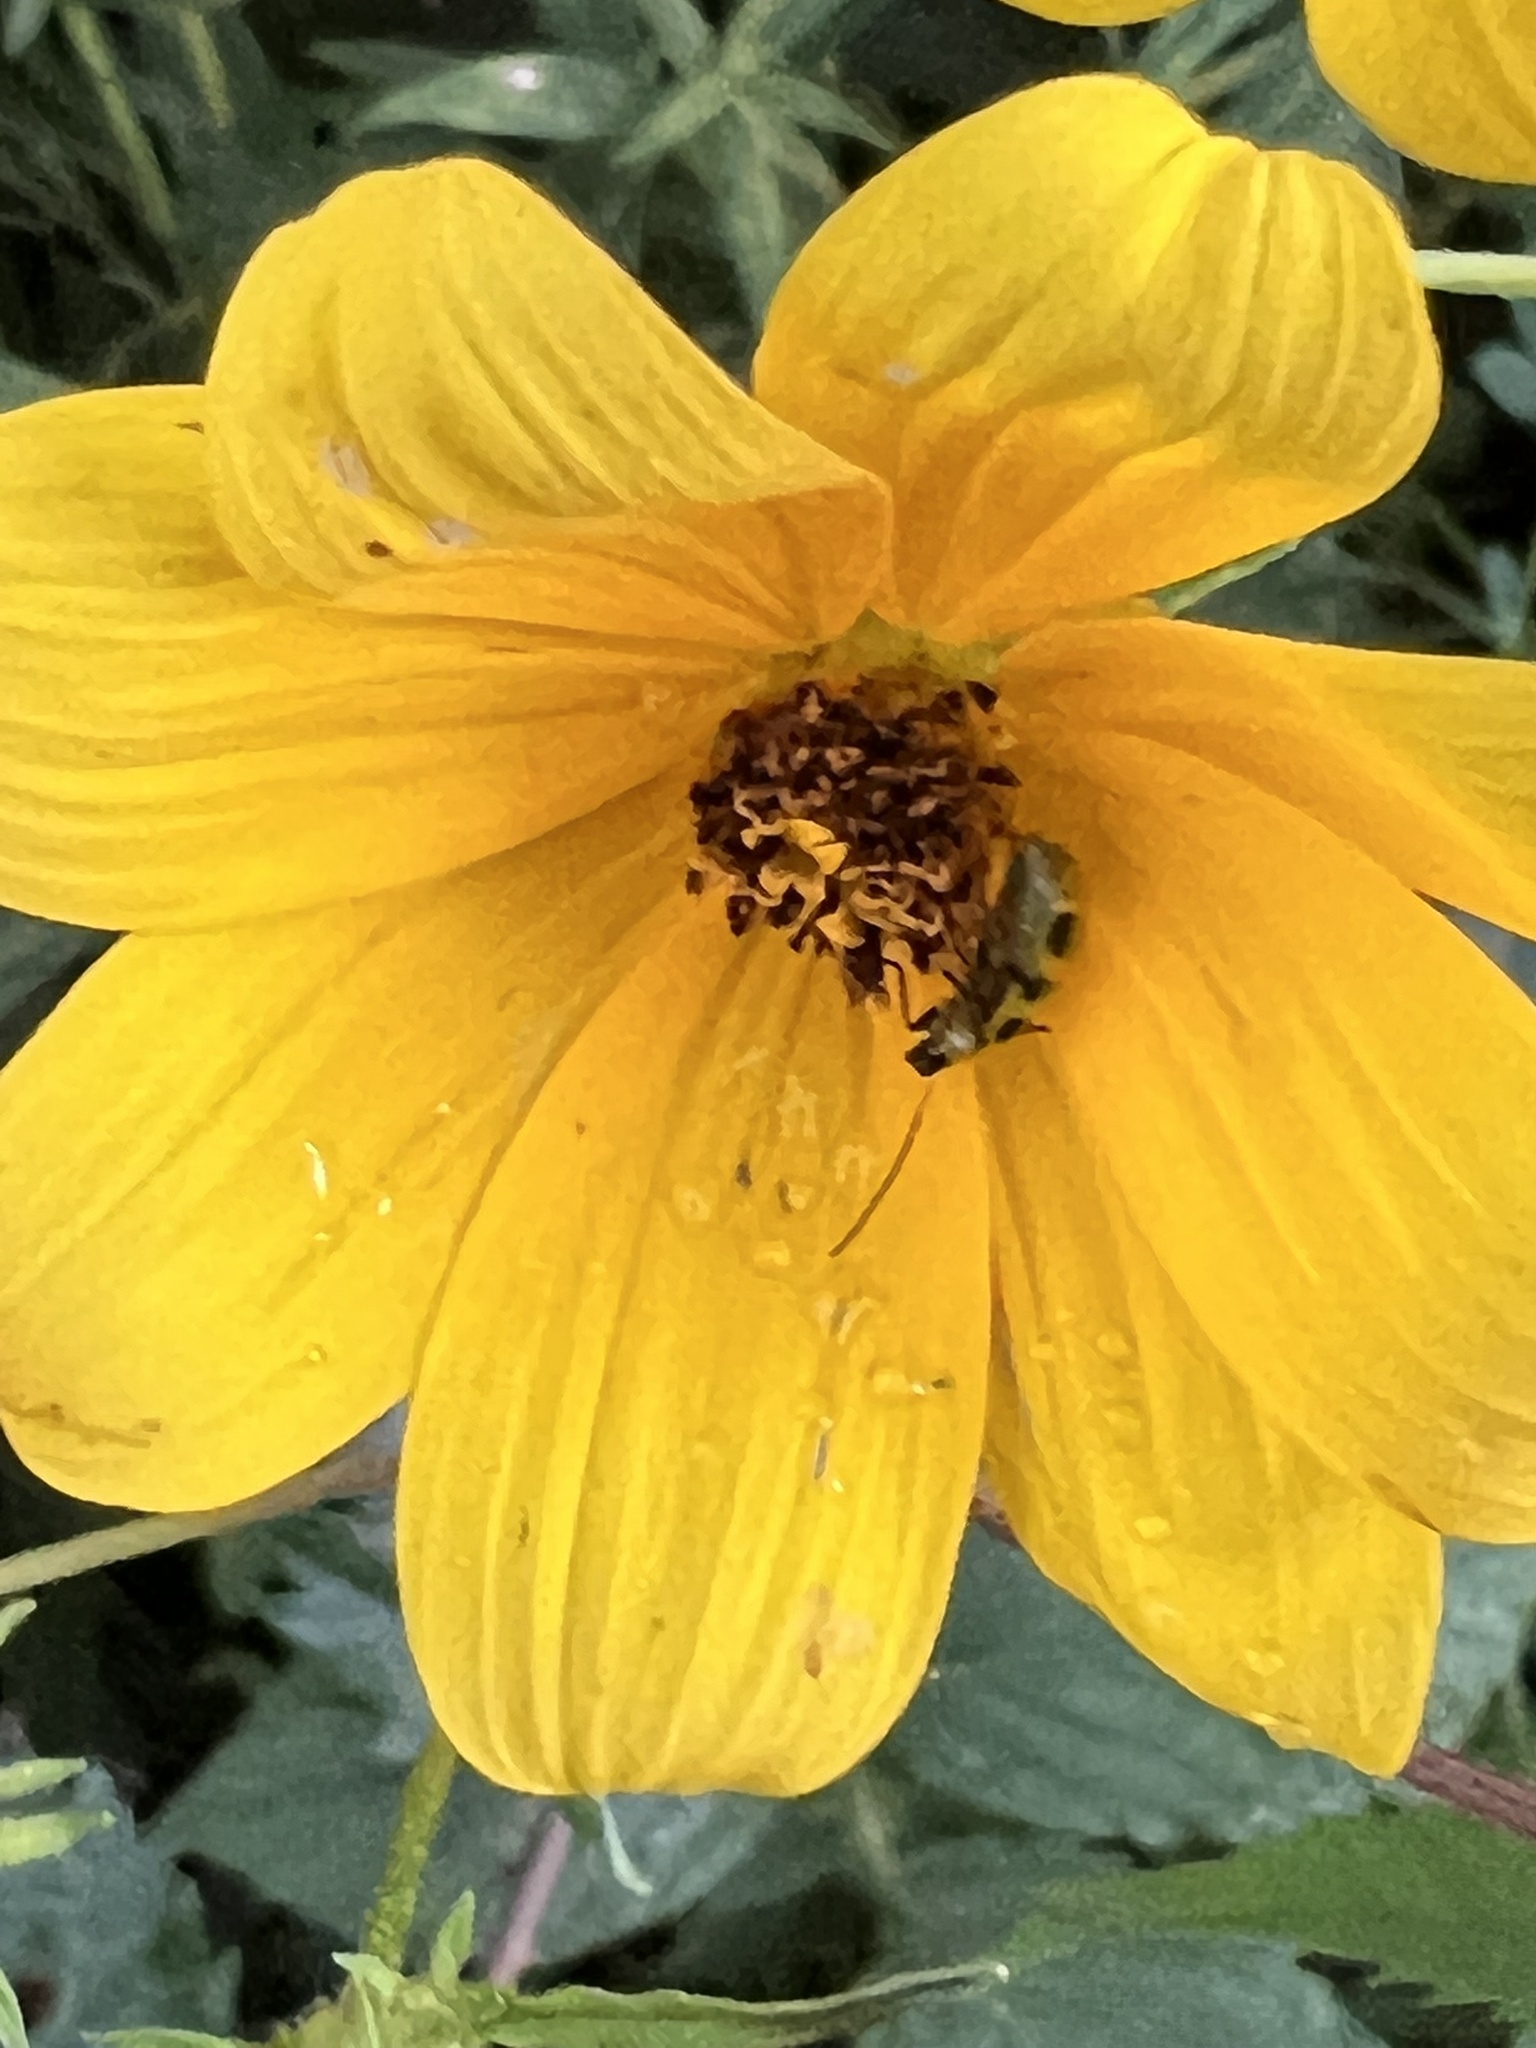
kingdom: Animalia
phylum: Arthropoda
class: Insecta
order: Coleoptera
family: Chrysomelidae
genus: Diabrotica
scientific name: Diabrotica undecimpunctata
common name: Spotted cucumber beetle
